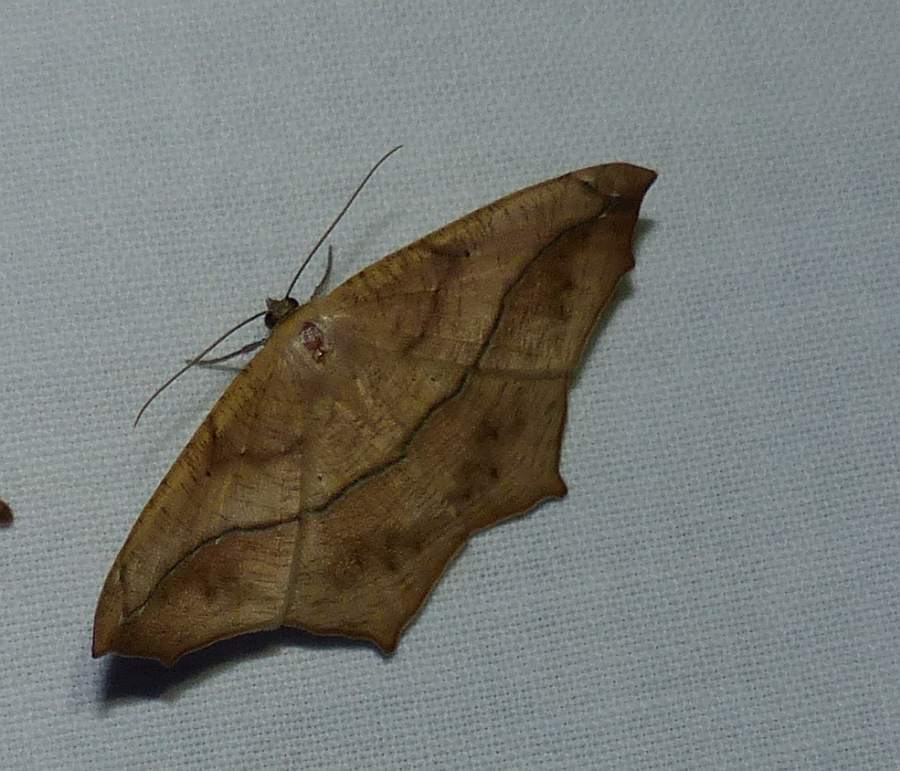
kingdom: Animalia
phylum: Arthropoda
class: Insecta
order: Lepidoptera
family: Geometridae
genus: Prochoerodes
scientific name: Prochoerodes lineola
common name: Large maple spanworm
